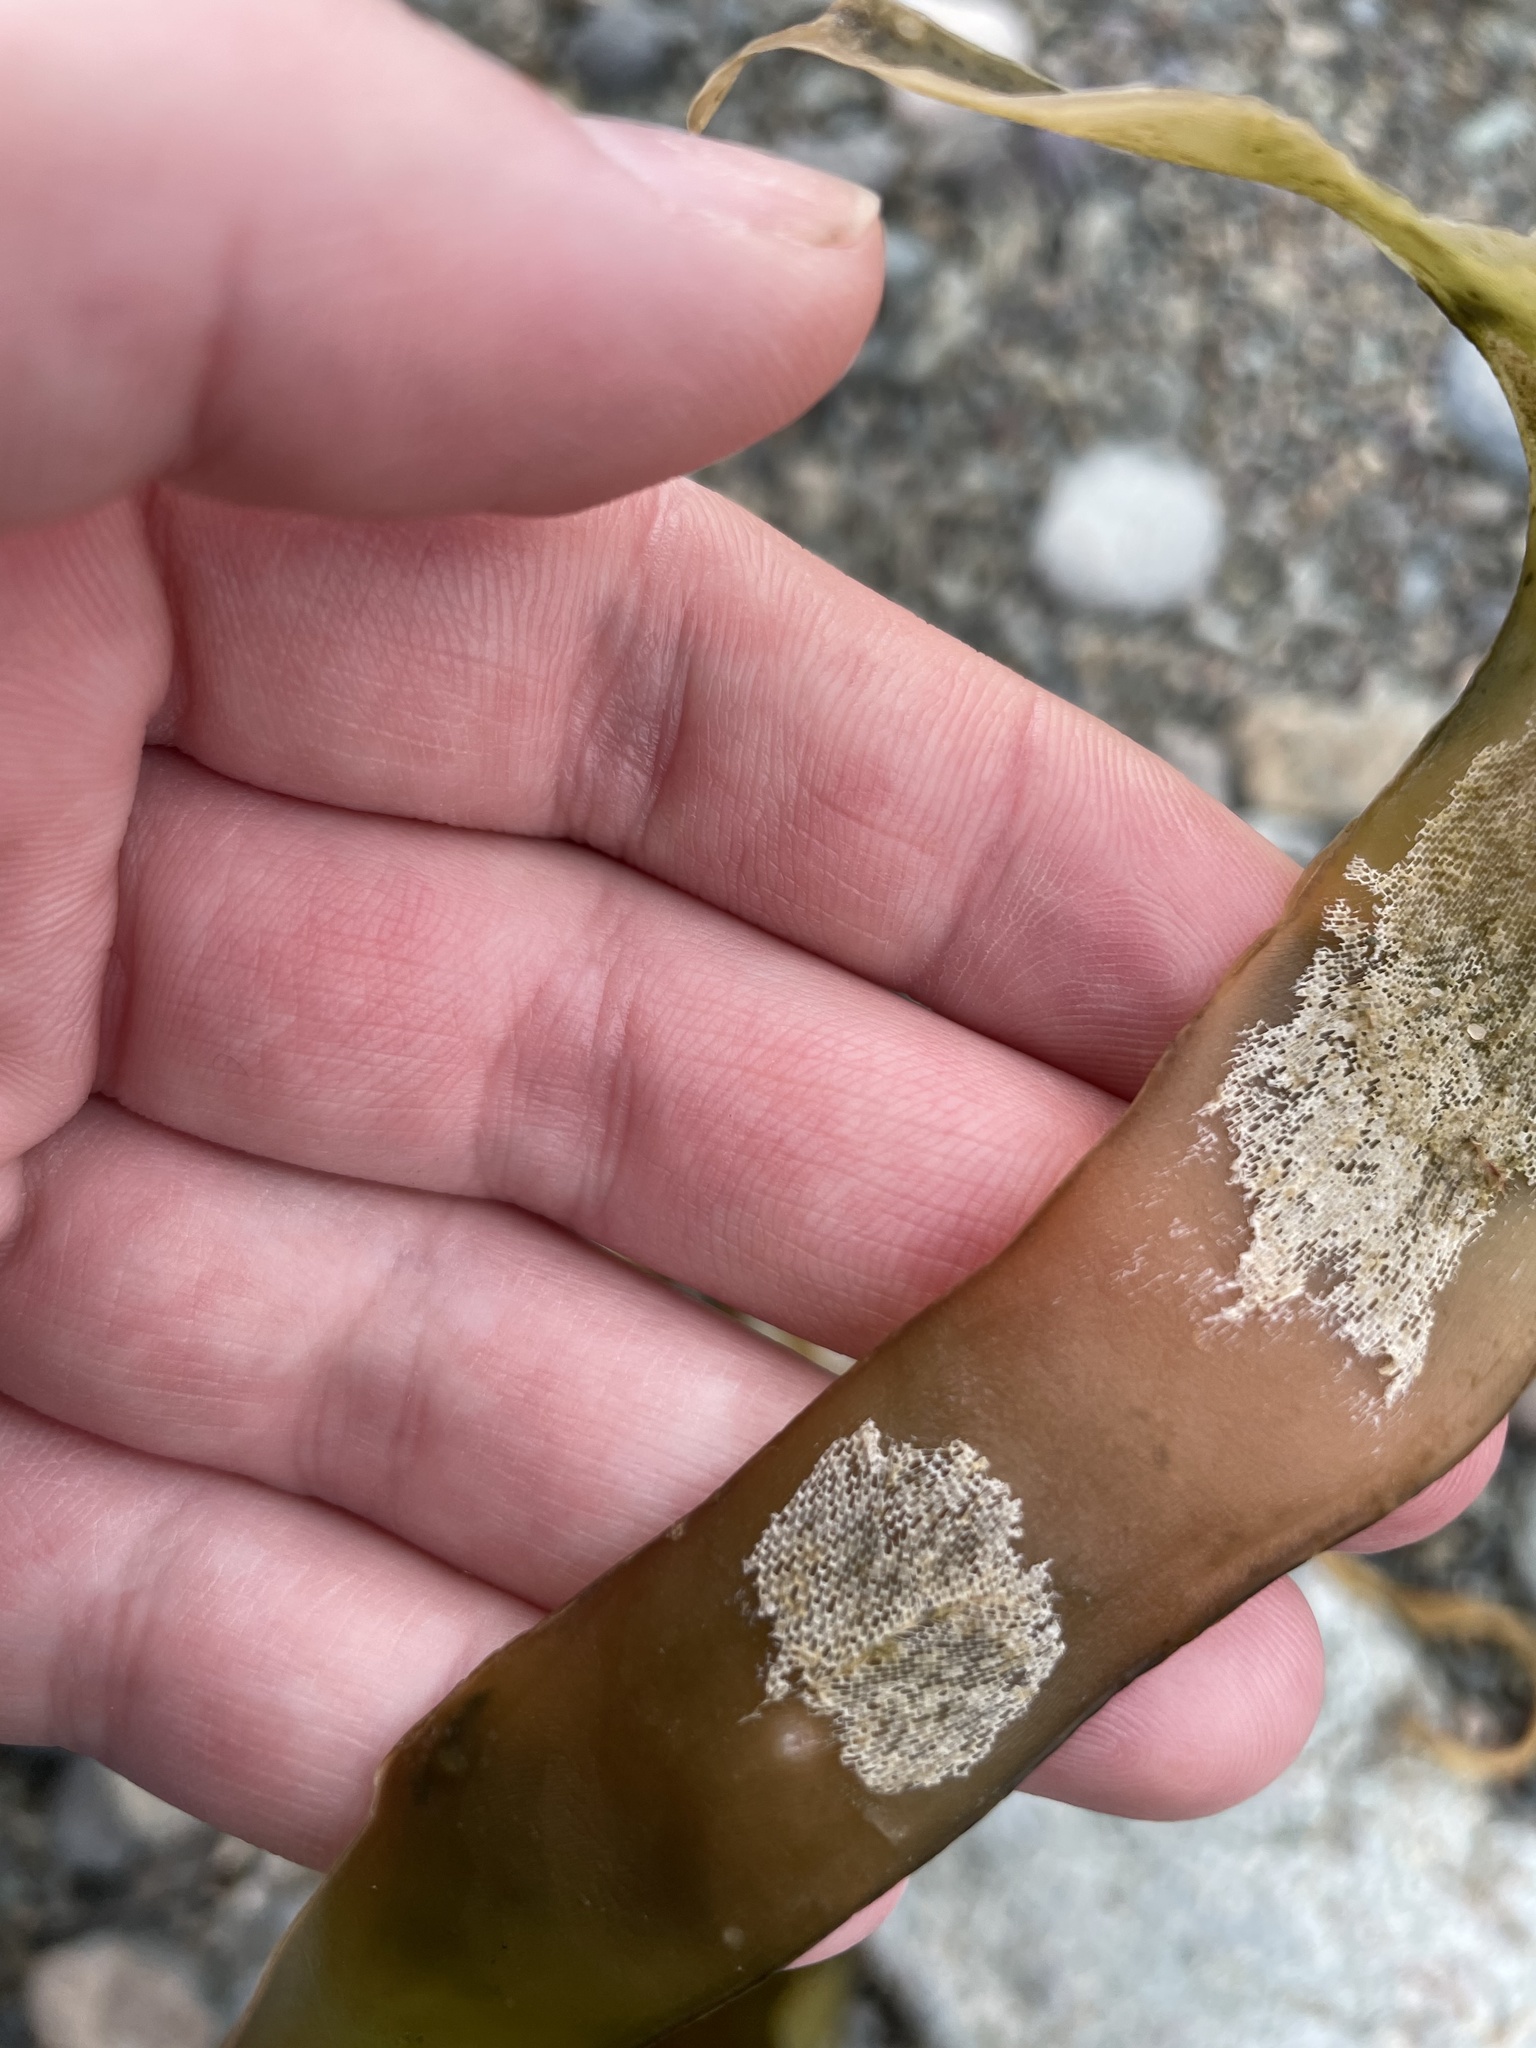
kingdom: Animalia
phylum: Bryozoa
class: Gymnolaemata
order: Cheilostomatida
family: Membraniporidae
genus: Membranipora
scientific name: Membranipora membranacea
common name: Sea mat
